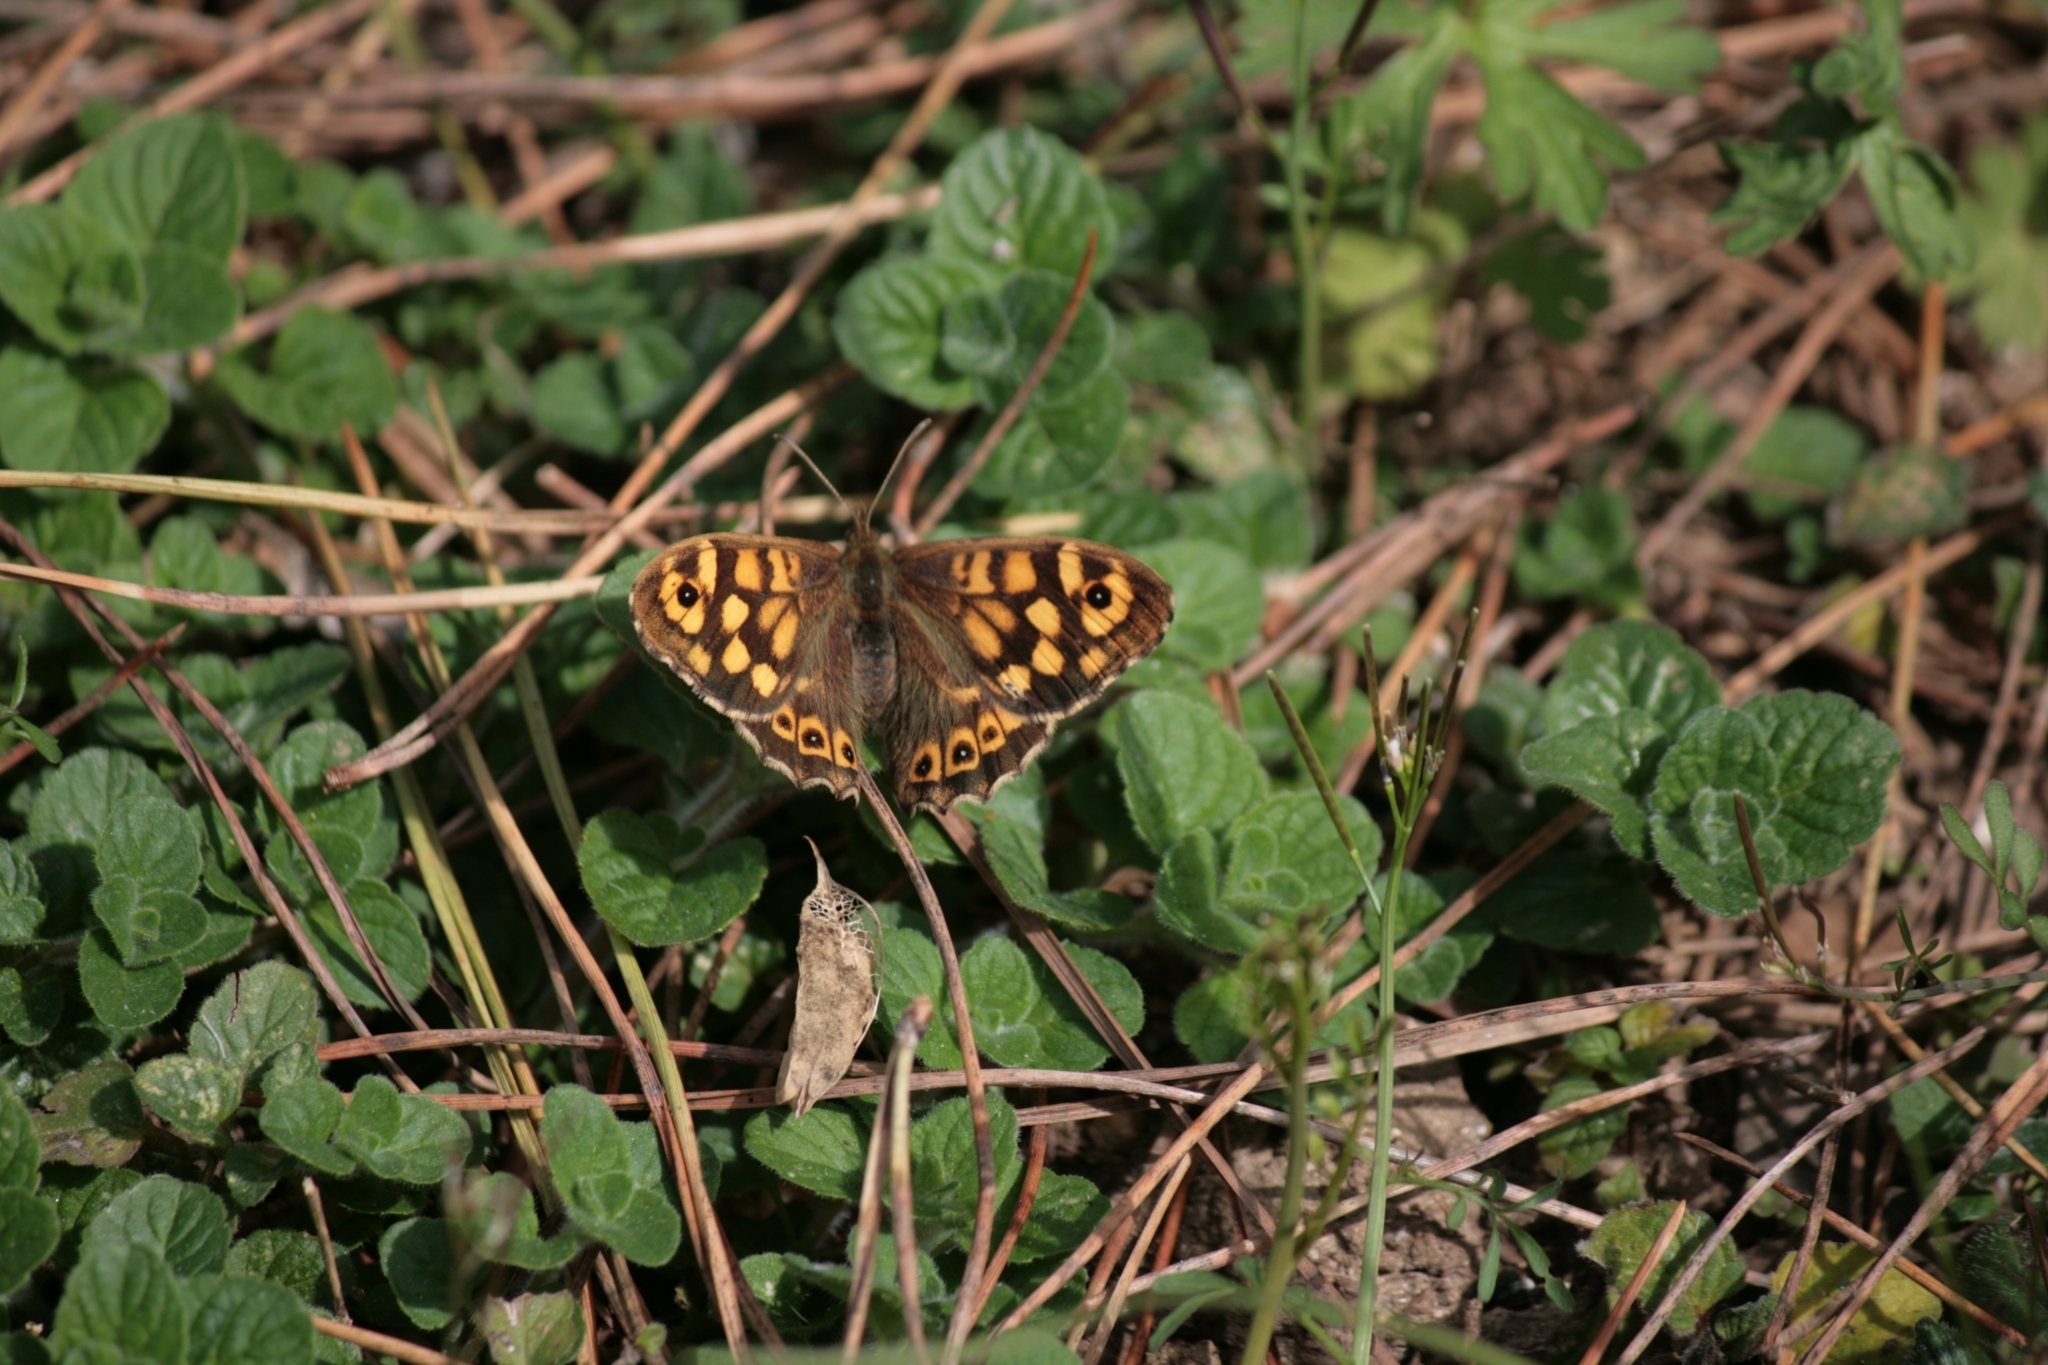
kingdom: Animalia
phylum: Arthropoda
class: Insecta
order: Lepidoptera
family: Nymphalidae
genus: Pararge
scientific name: Pararge aegeria
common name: Speckled wood
